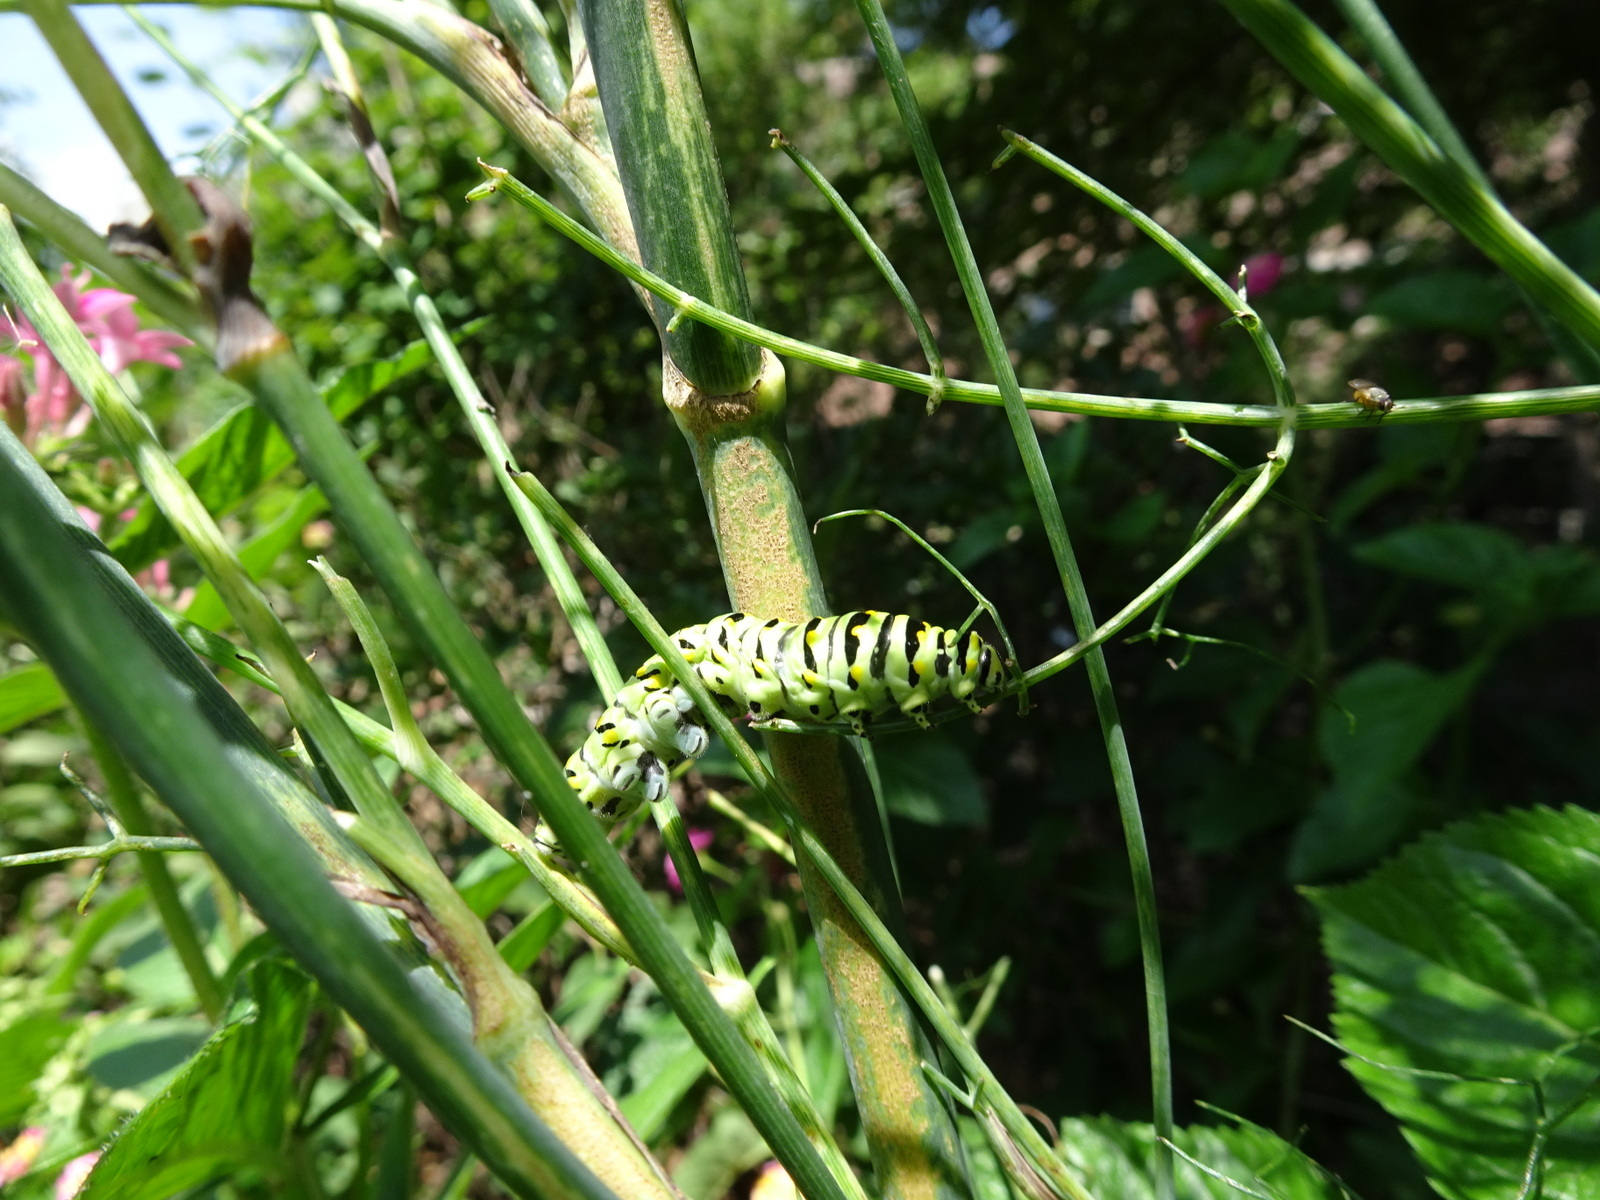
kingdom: Animalia
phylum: Arthropoda
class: Insecta
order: Lepidoptera
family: Papilionidae
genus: Papilio
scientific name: Papilio polyxenes
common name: Black swallowtail
